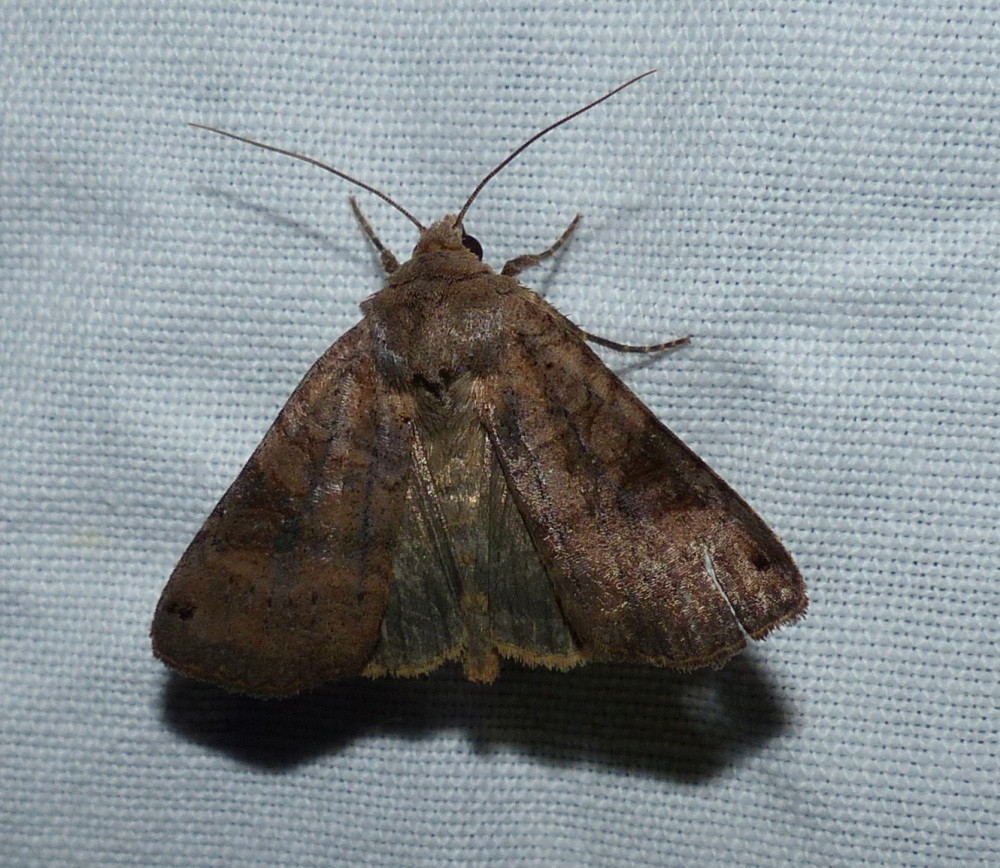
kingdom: Animalia
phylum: Arthropoda
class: Insecta
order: Lepidoptera
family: Noctuidae
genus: Xestia
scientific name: Xestia smithii
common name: Smith's dart
